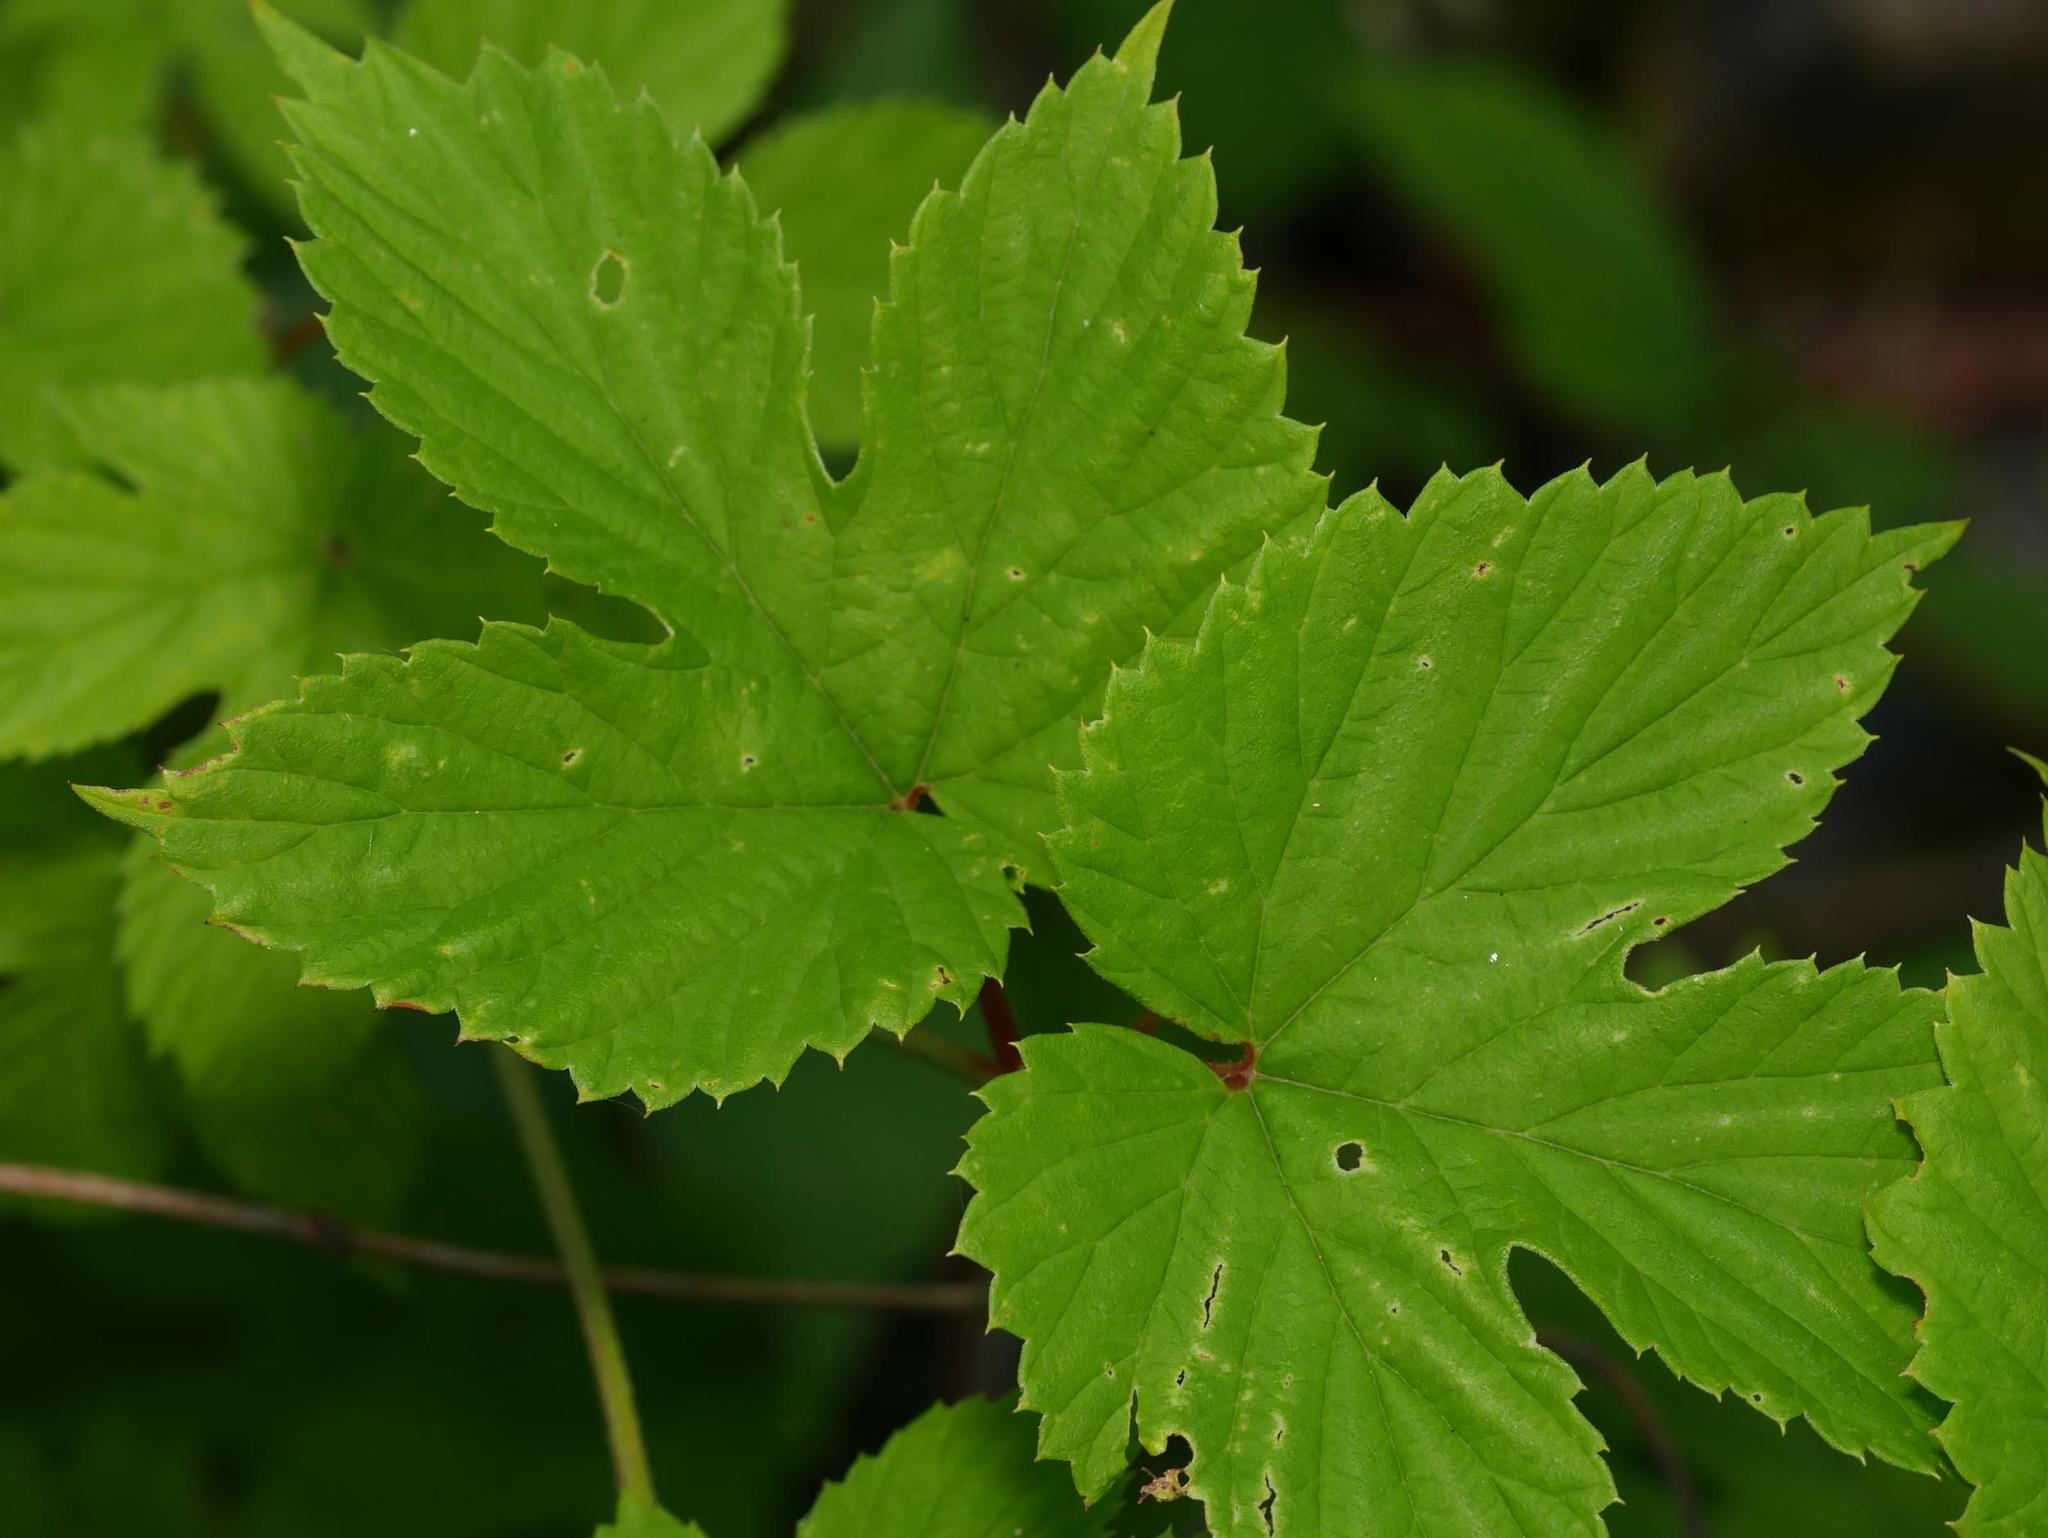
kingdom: Plantae
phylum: Tracheophyta
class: Magnoliopsida
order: Rosales
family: Cannabaceae
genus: Humulus
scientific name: Humulus lupulus
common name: Hop
